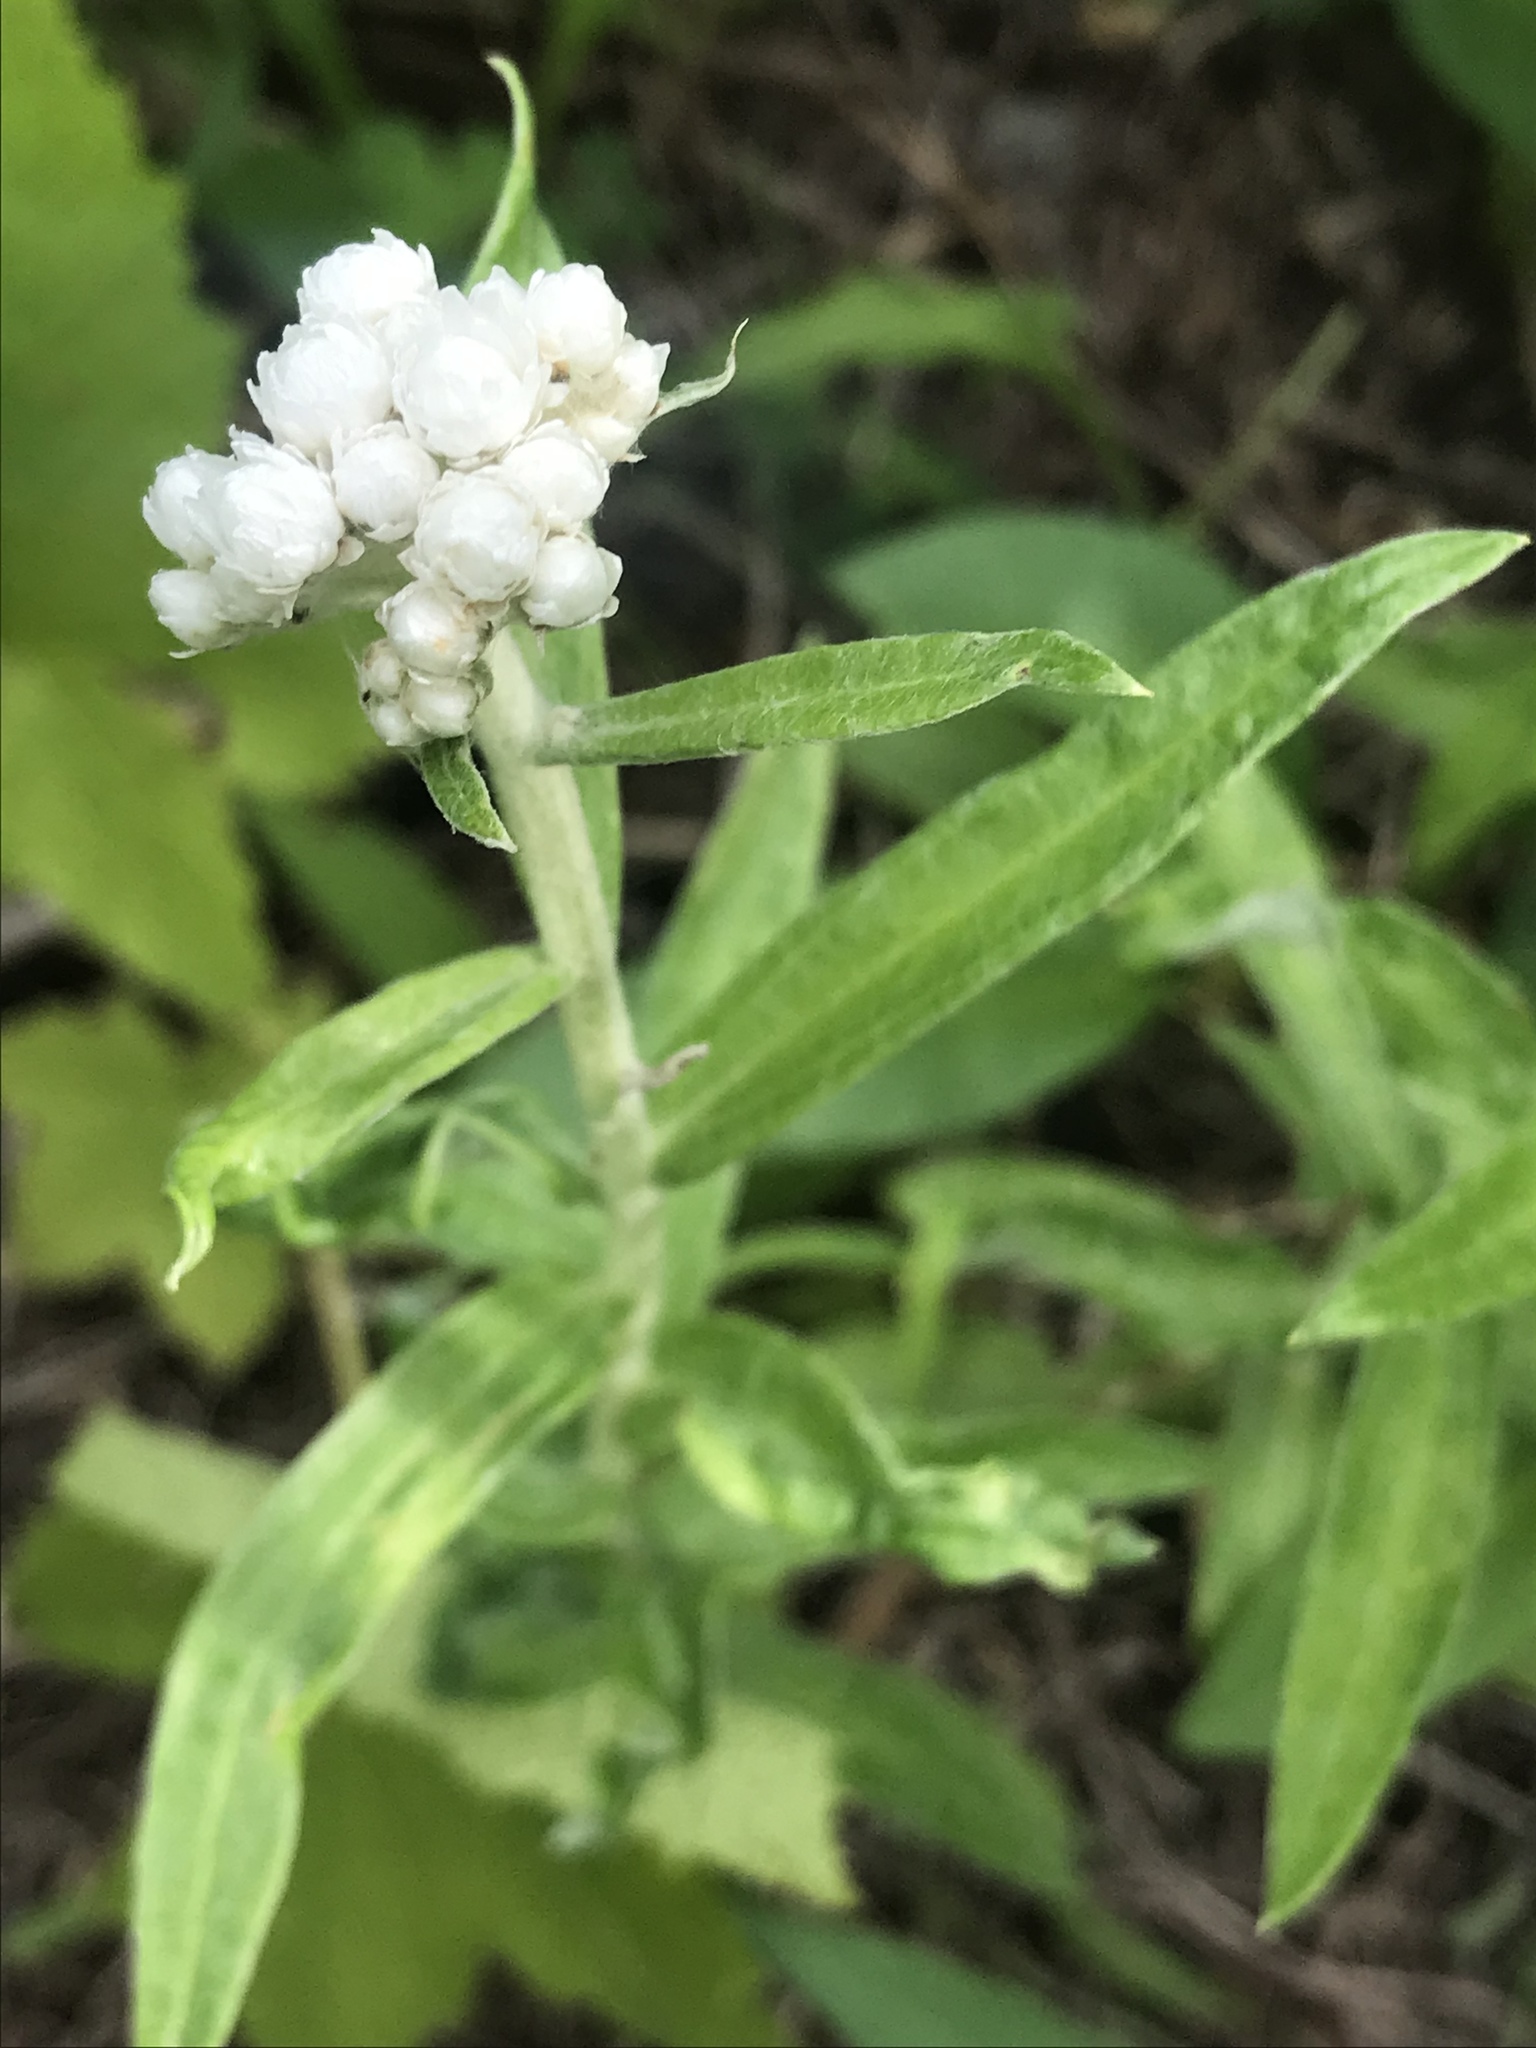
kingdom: Plantae
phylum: Tracheophyta
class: Magnoliopsida
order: Asterales
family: Asteraceae
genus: Anaphalis
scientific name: Anaphalis margaritacea
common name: Pearly everlasting
